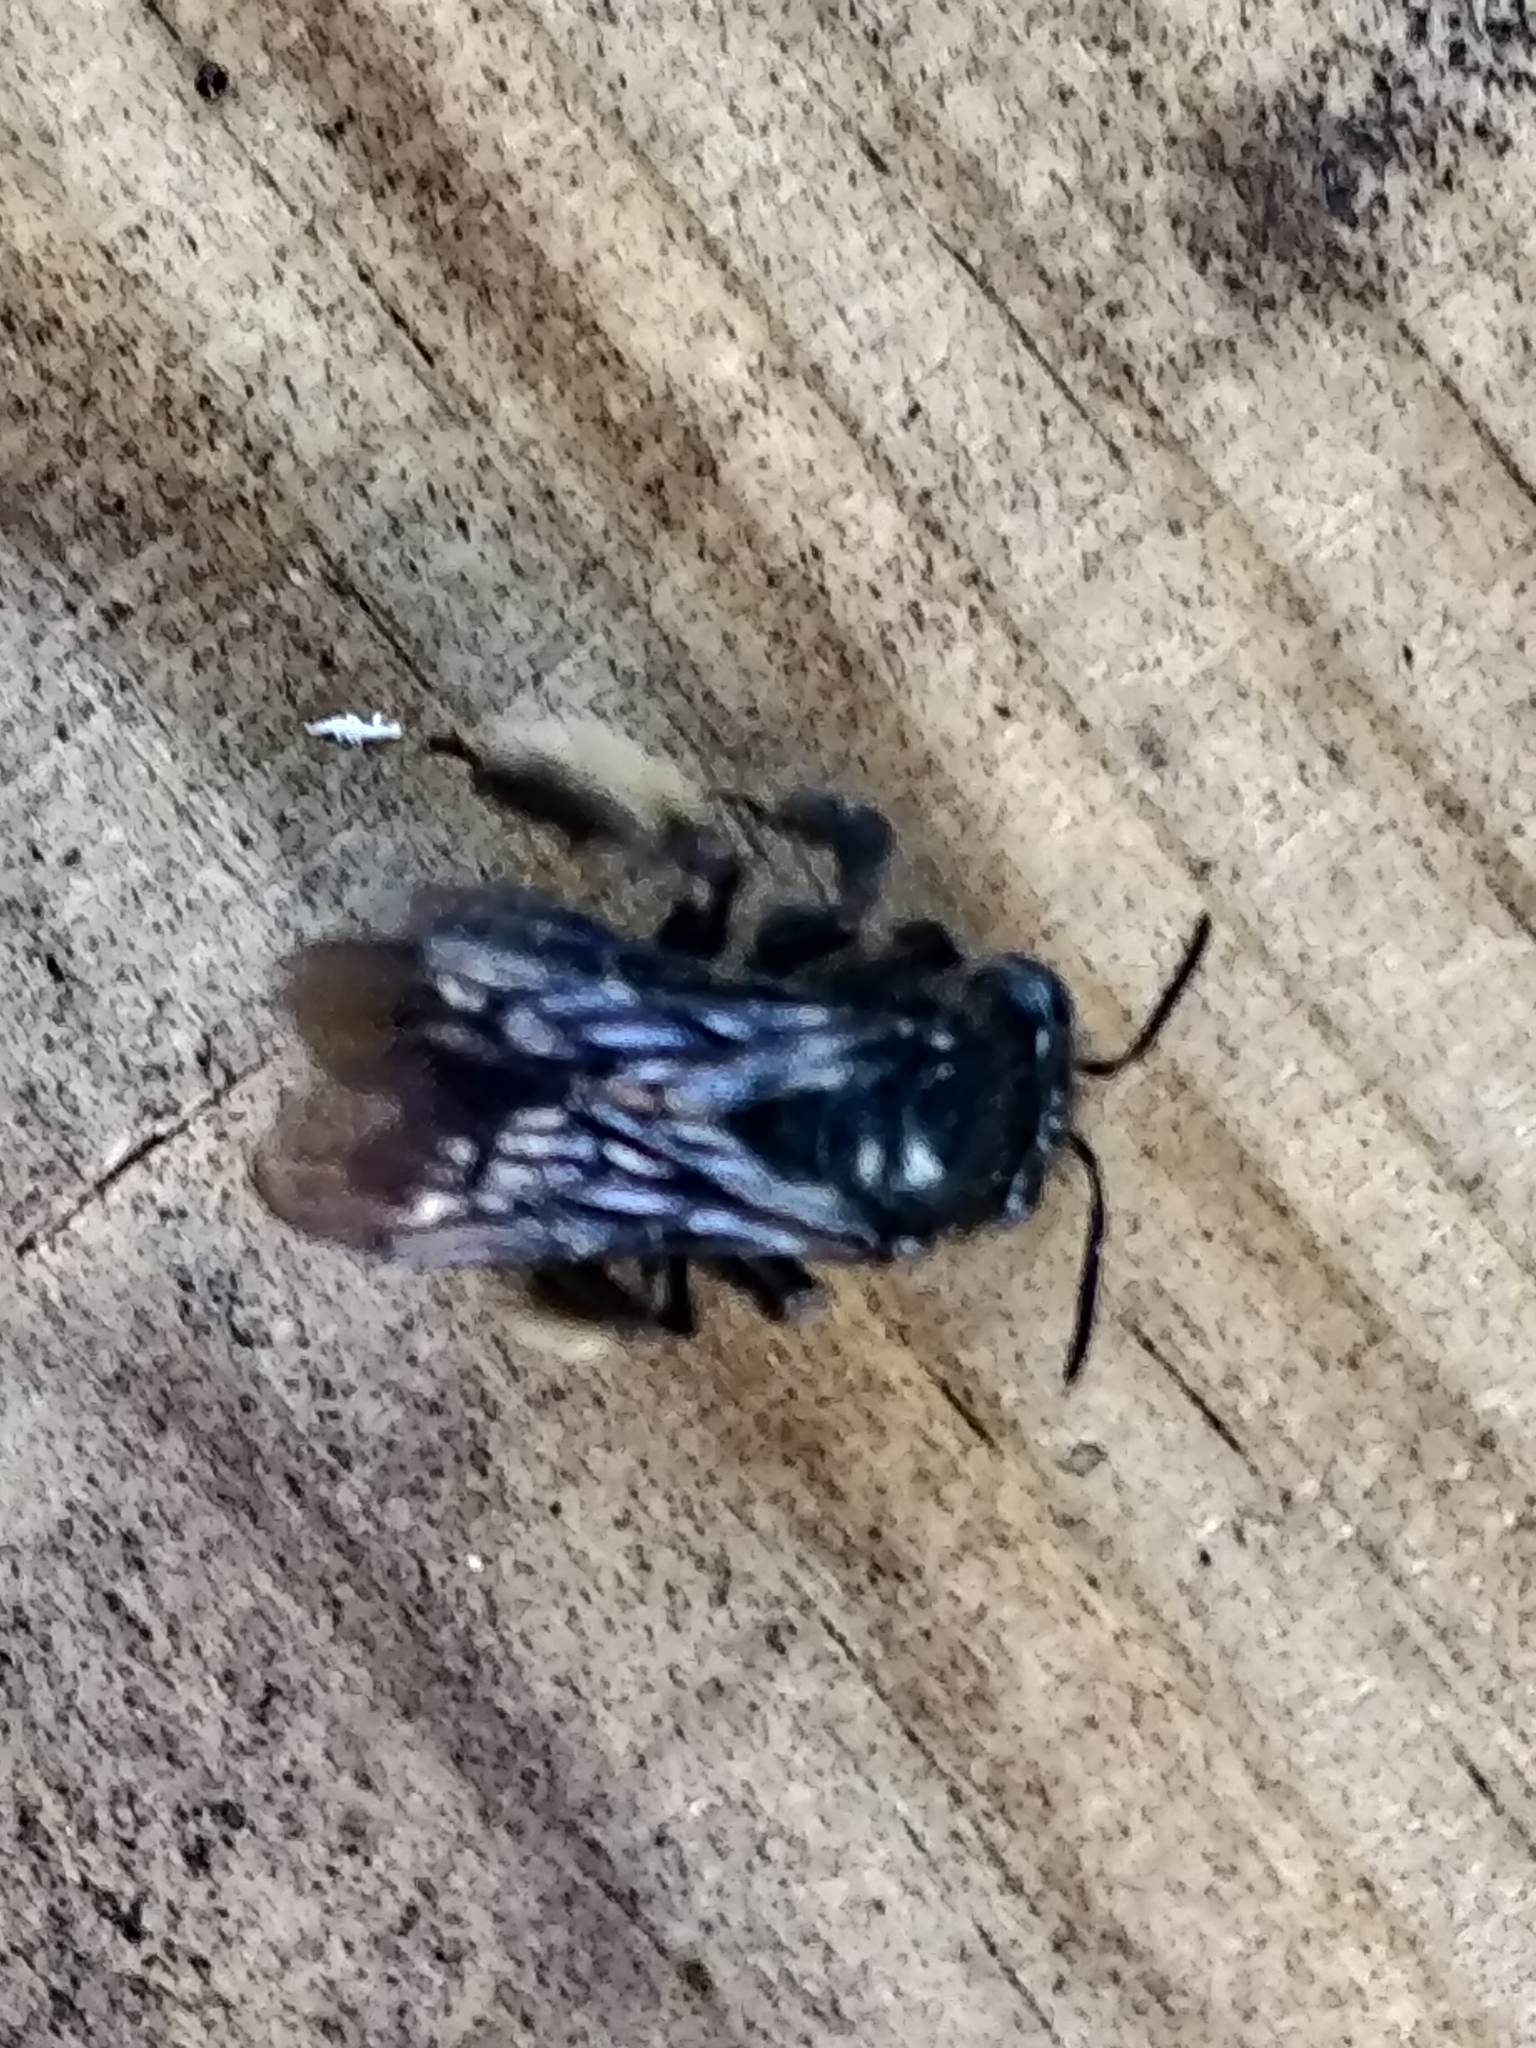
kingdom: Animalia
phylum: Arthropoda
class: Insecta
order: Hymenoptera
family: Apidae
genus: Melissodes
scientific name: Melissodes bimaculatus
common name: Two-spotted long-horned bee
